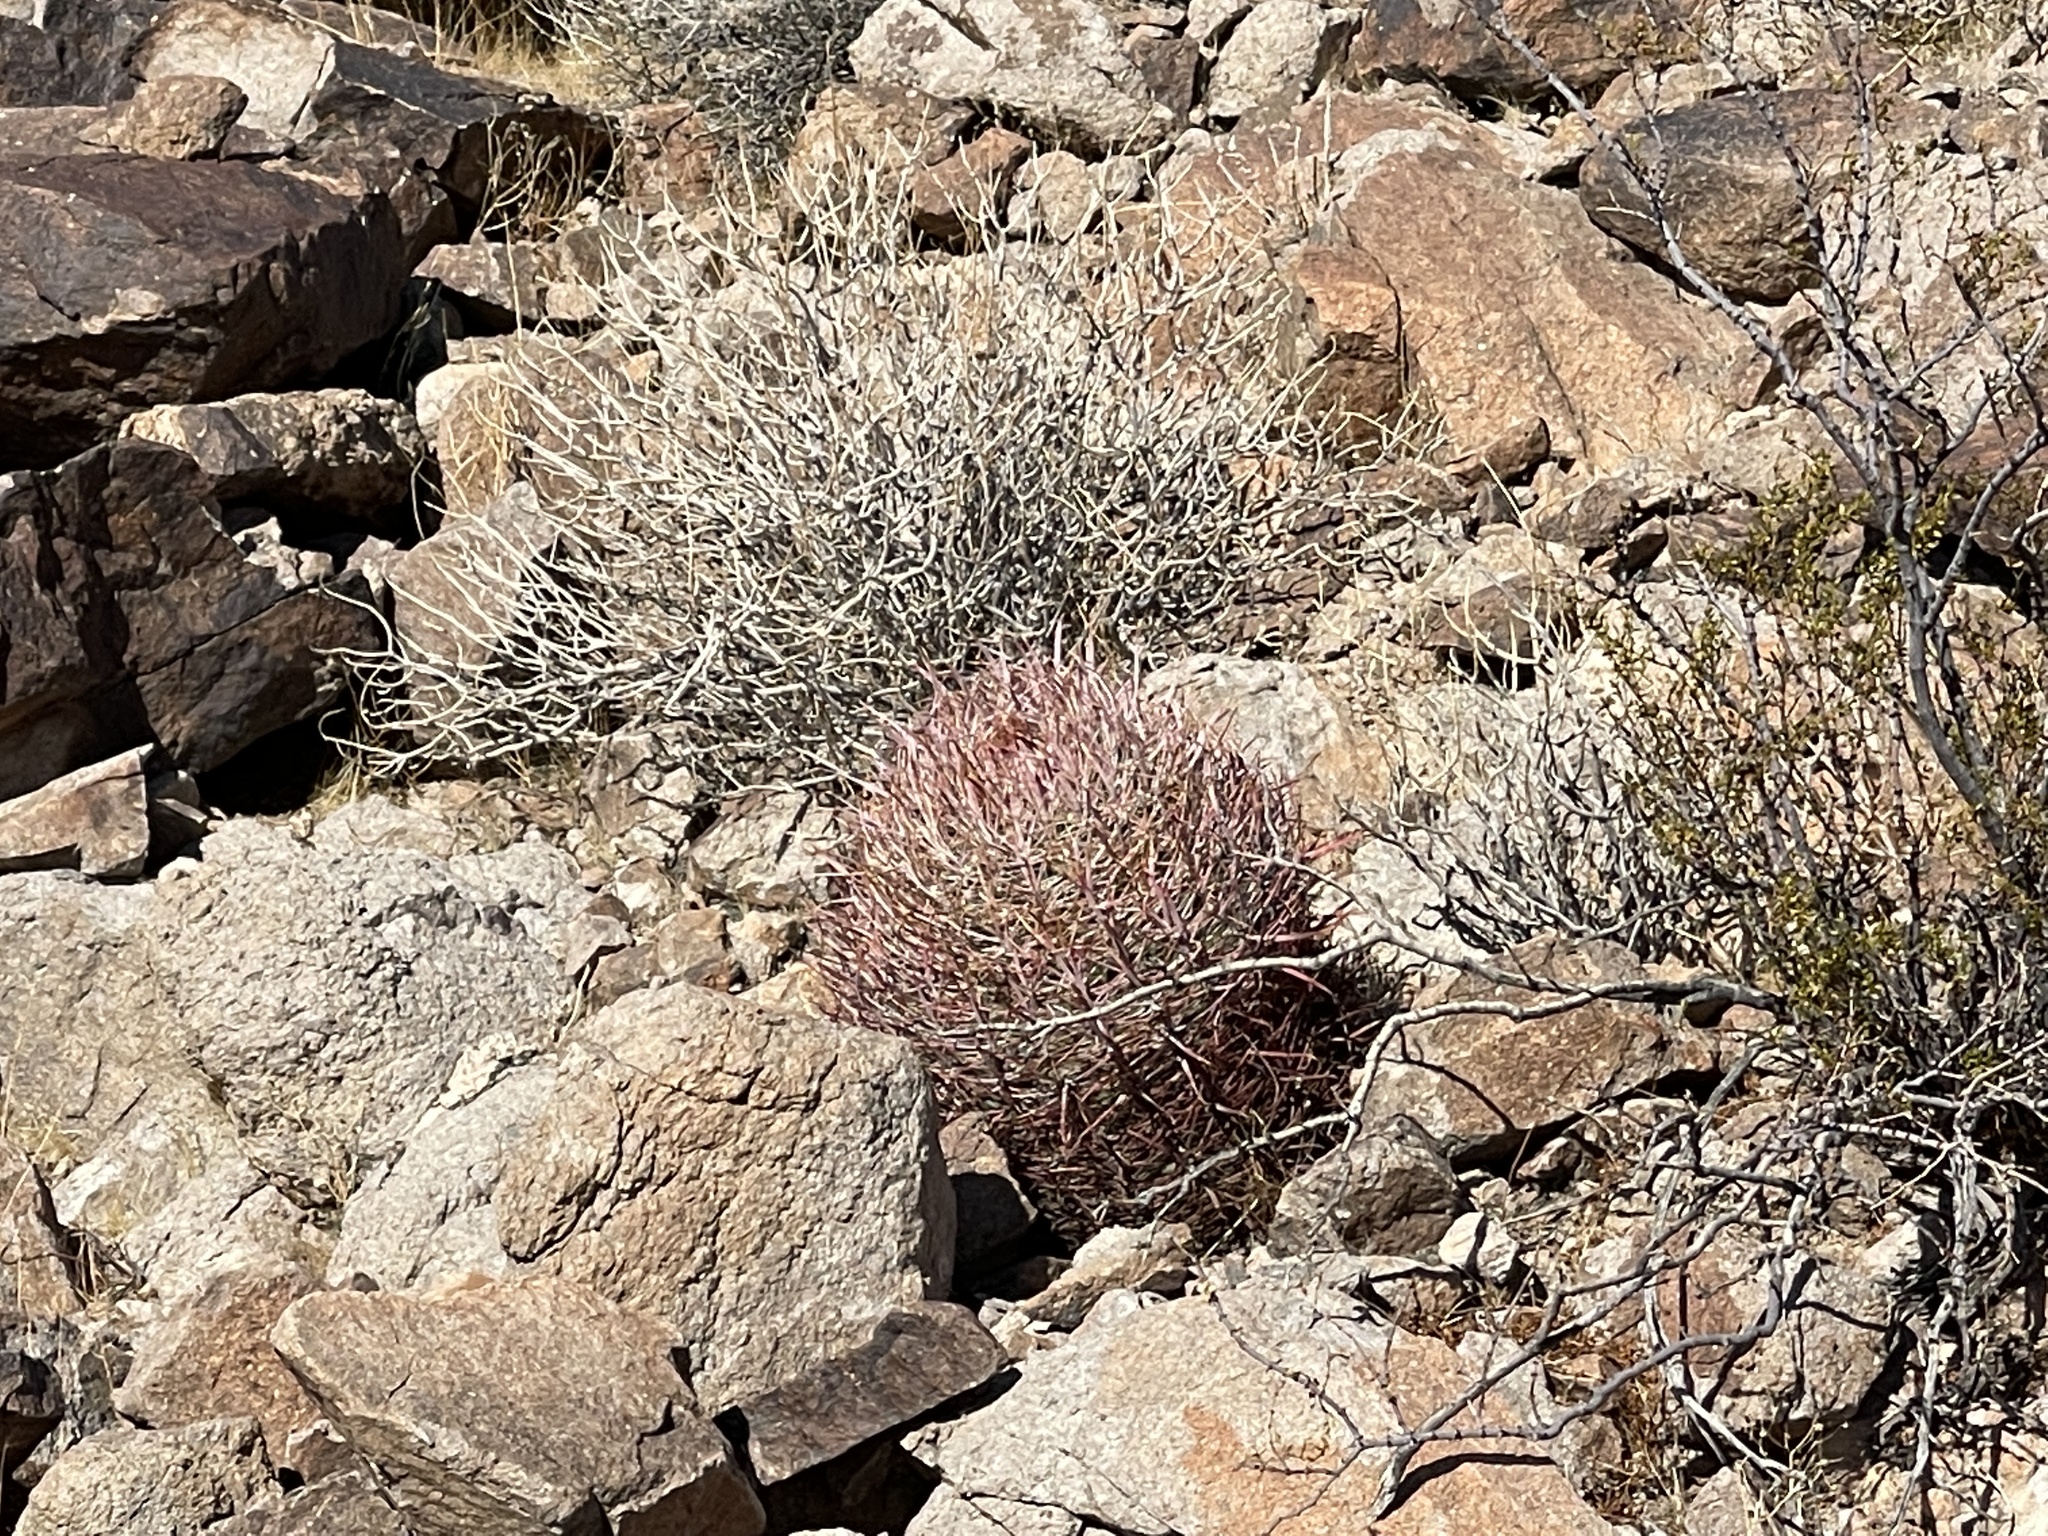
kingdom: Plantae
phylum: Tracheophyta
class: Magnoliopsida
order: Caryophyllales
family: Cactaceae
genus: Ferocactus
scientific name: Ferocactus cylindraceus
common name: California barrel cactus
